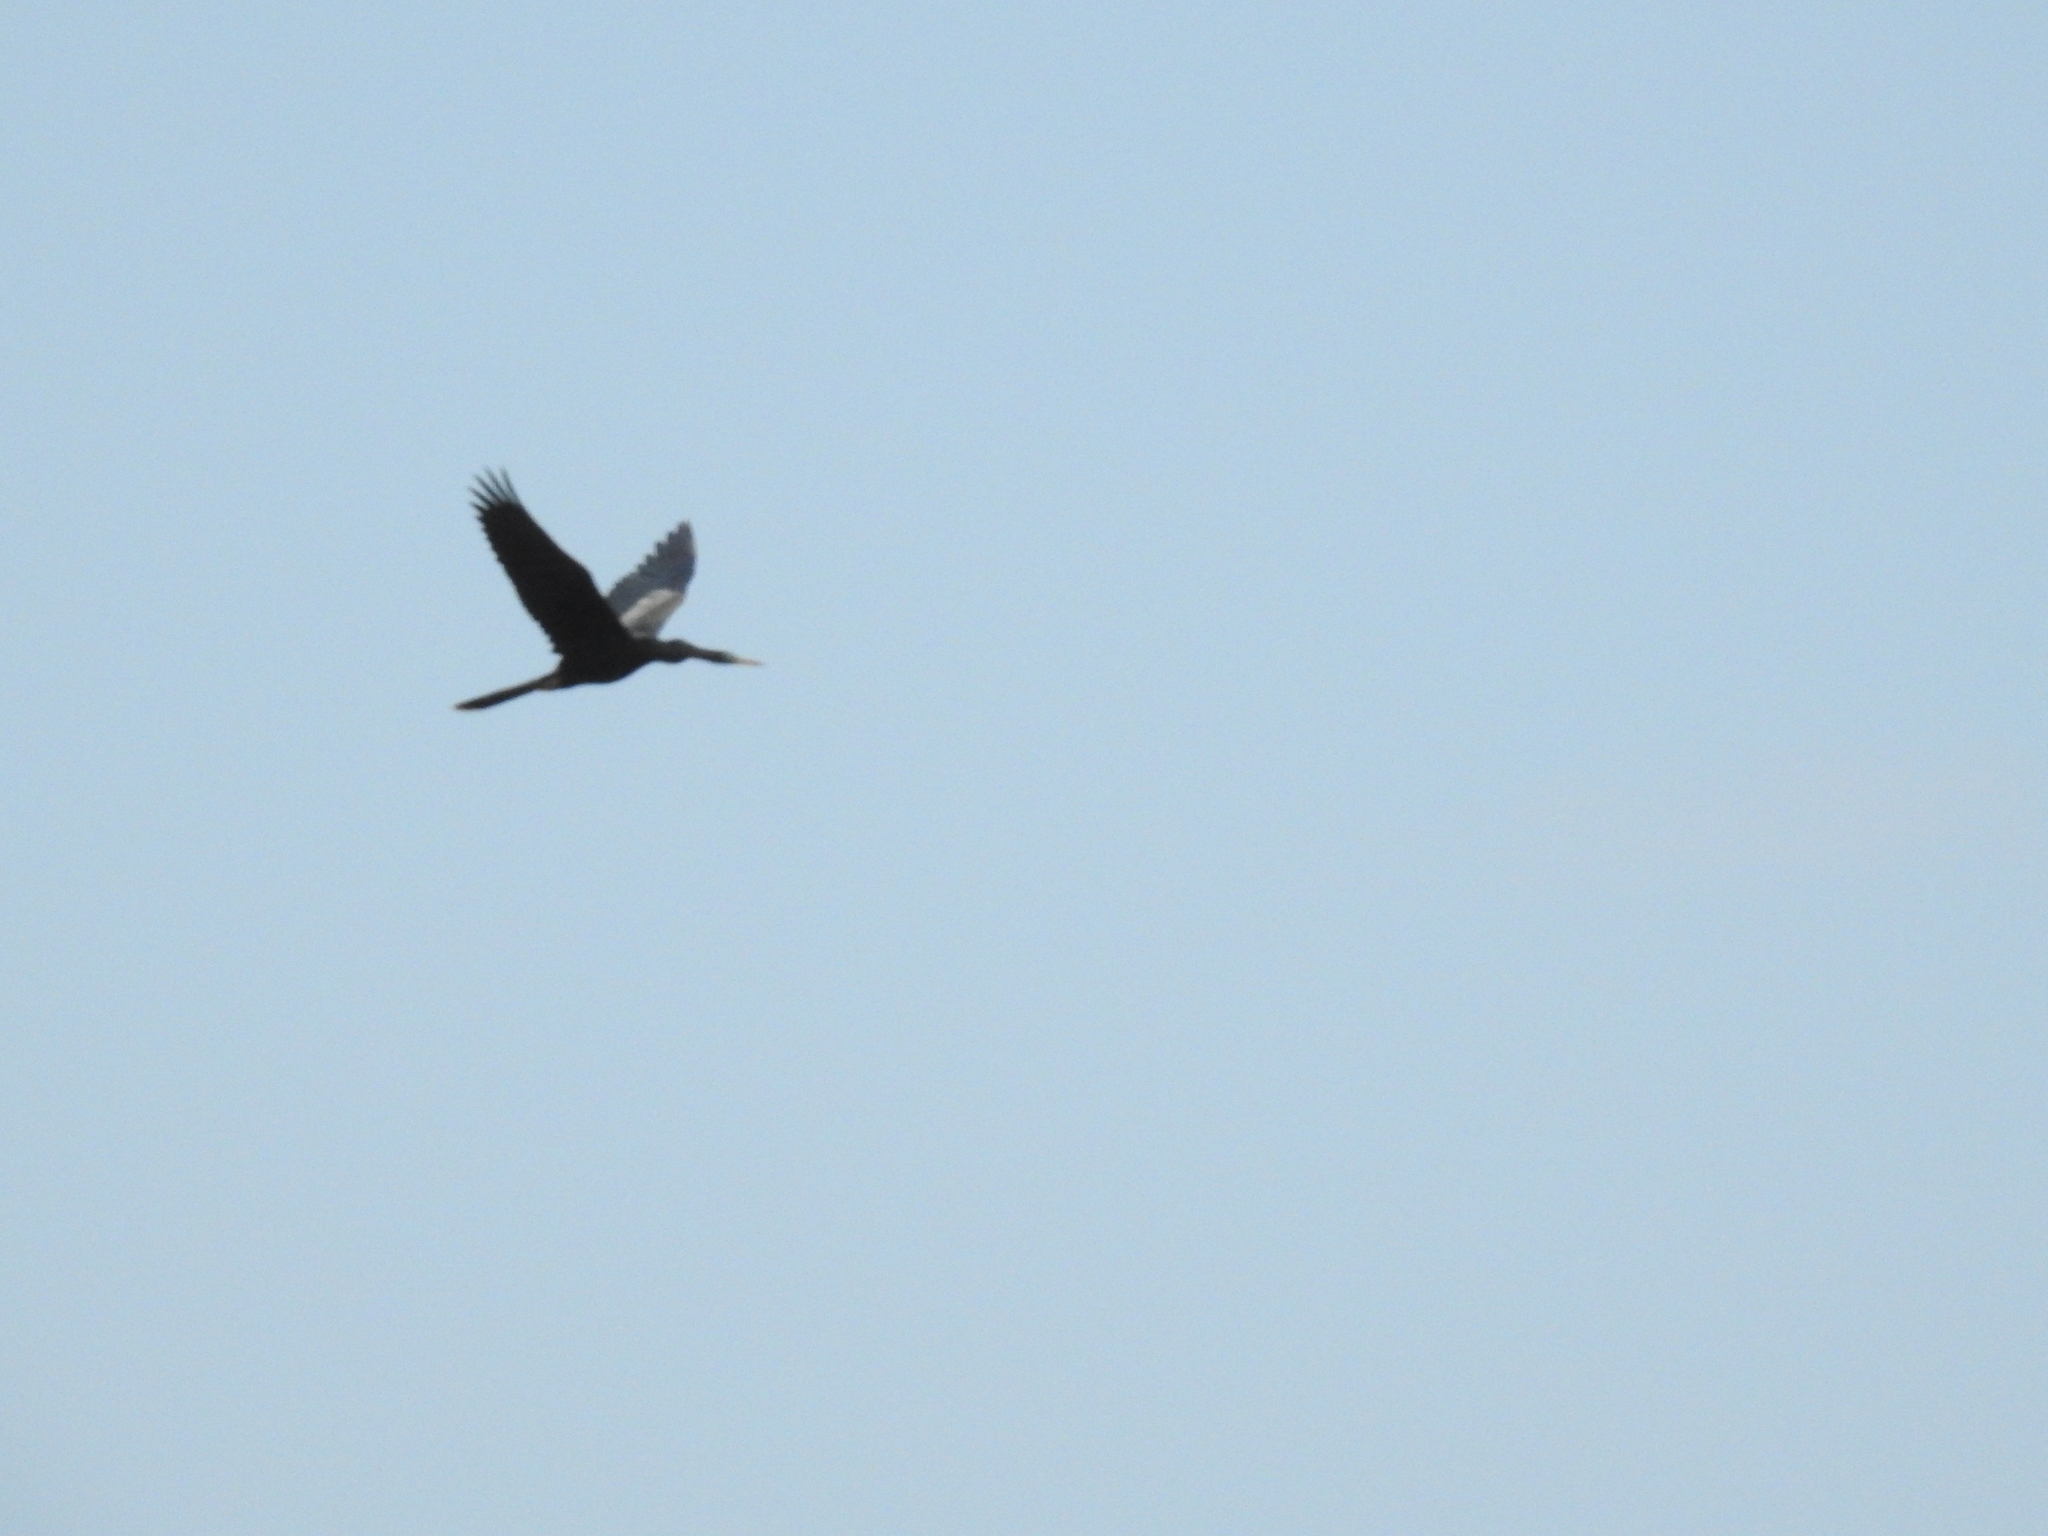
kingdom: Animalia
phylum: Chordata
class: Aves
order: Suliformes
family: Anhingidae
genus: Anhinga
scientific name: Anhinga anhinga
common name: Anhinga
